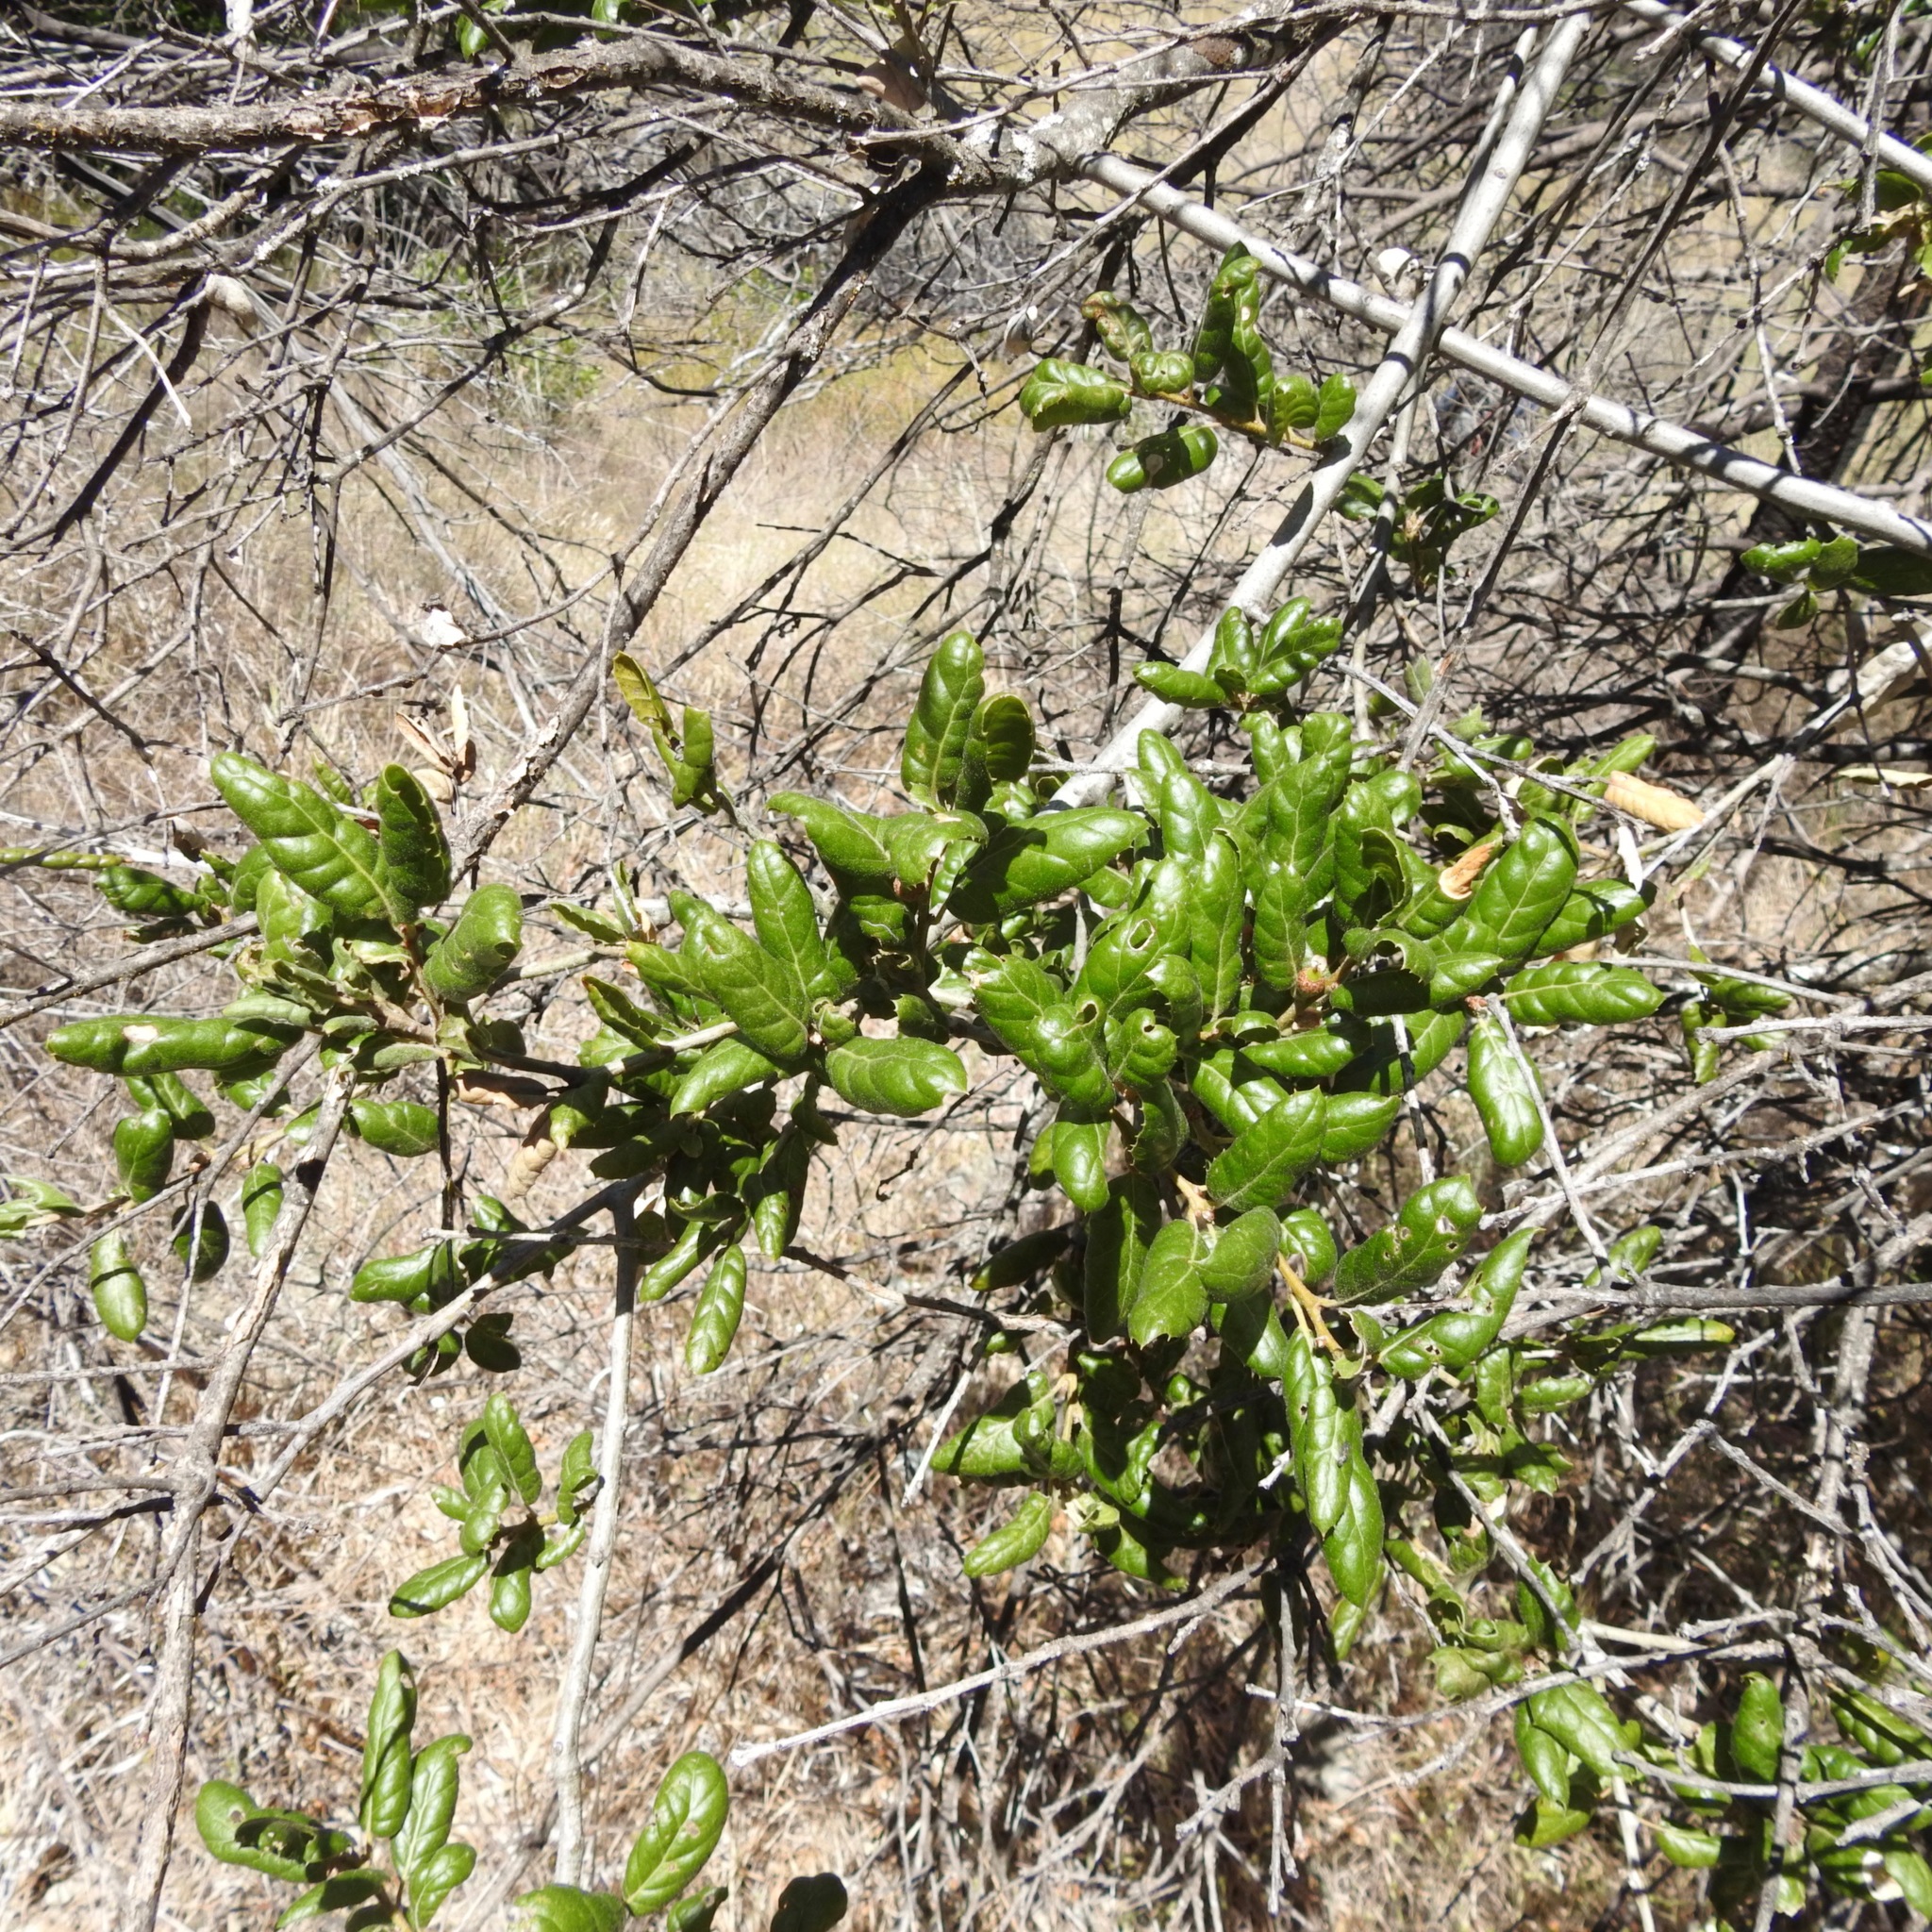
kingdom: Plantae
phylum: Tracheophyta
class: Magnoliopsida
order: Fagales
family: Fagaceae
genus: Quercus
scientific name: Quercus agrifolia
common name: California live oak
